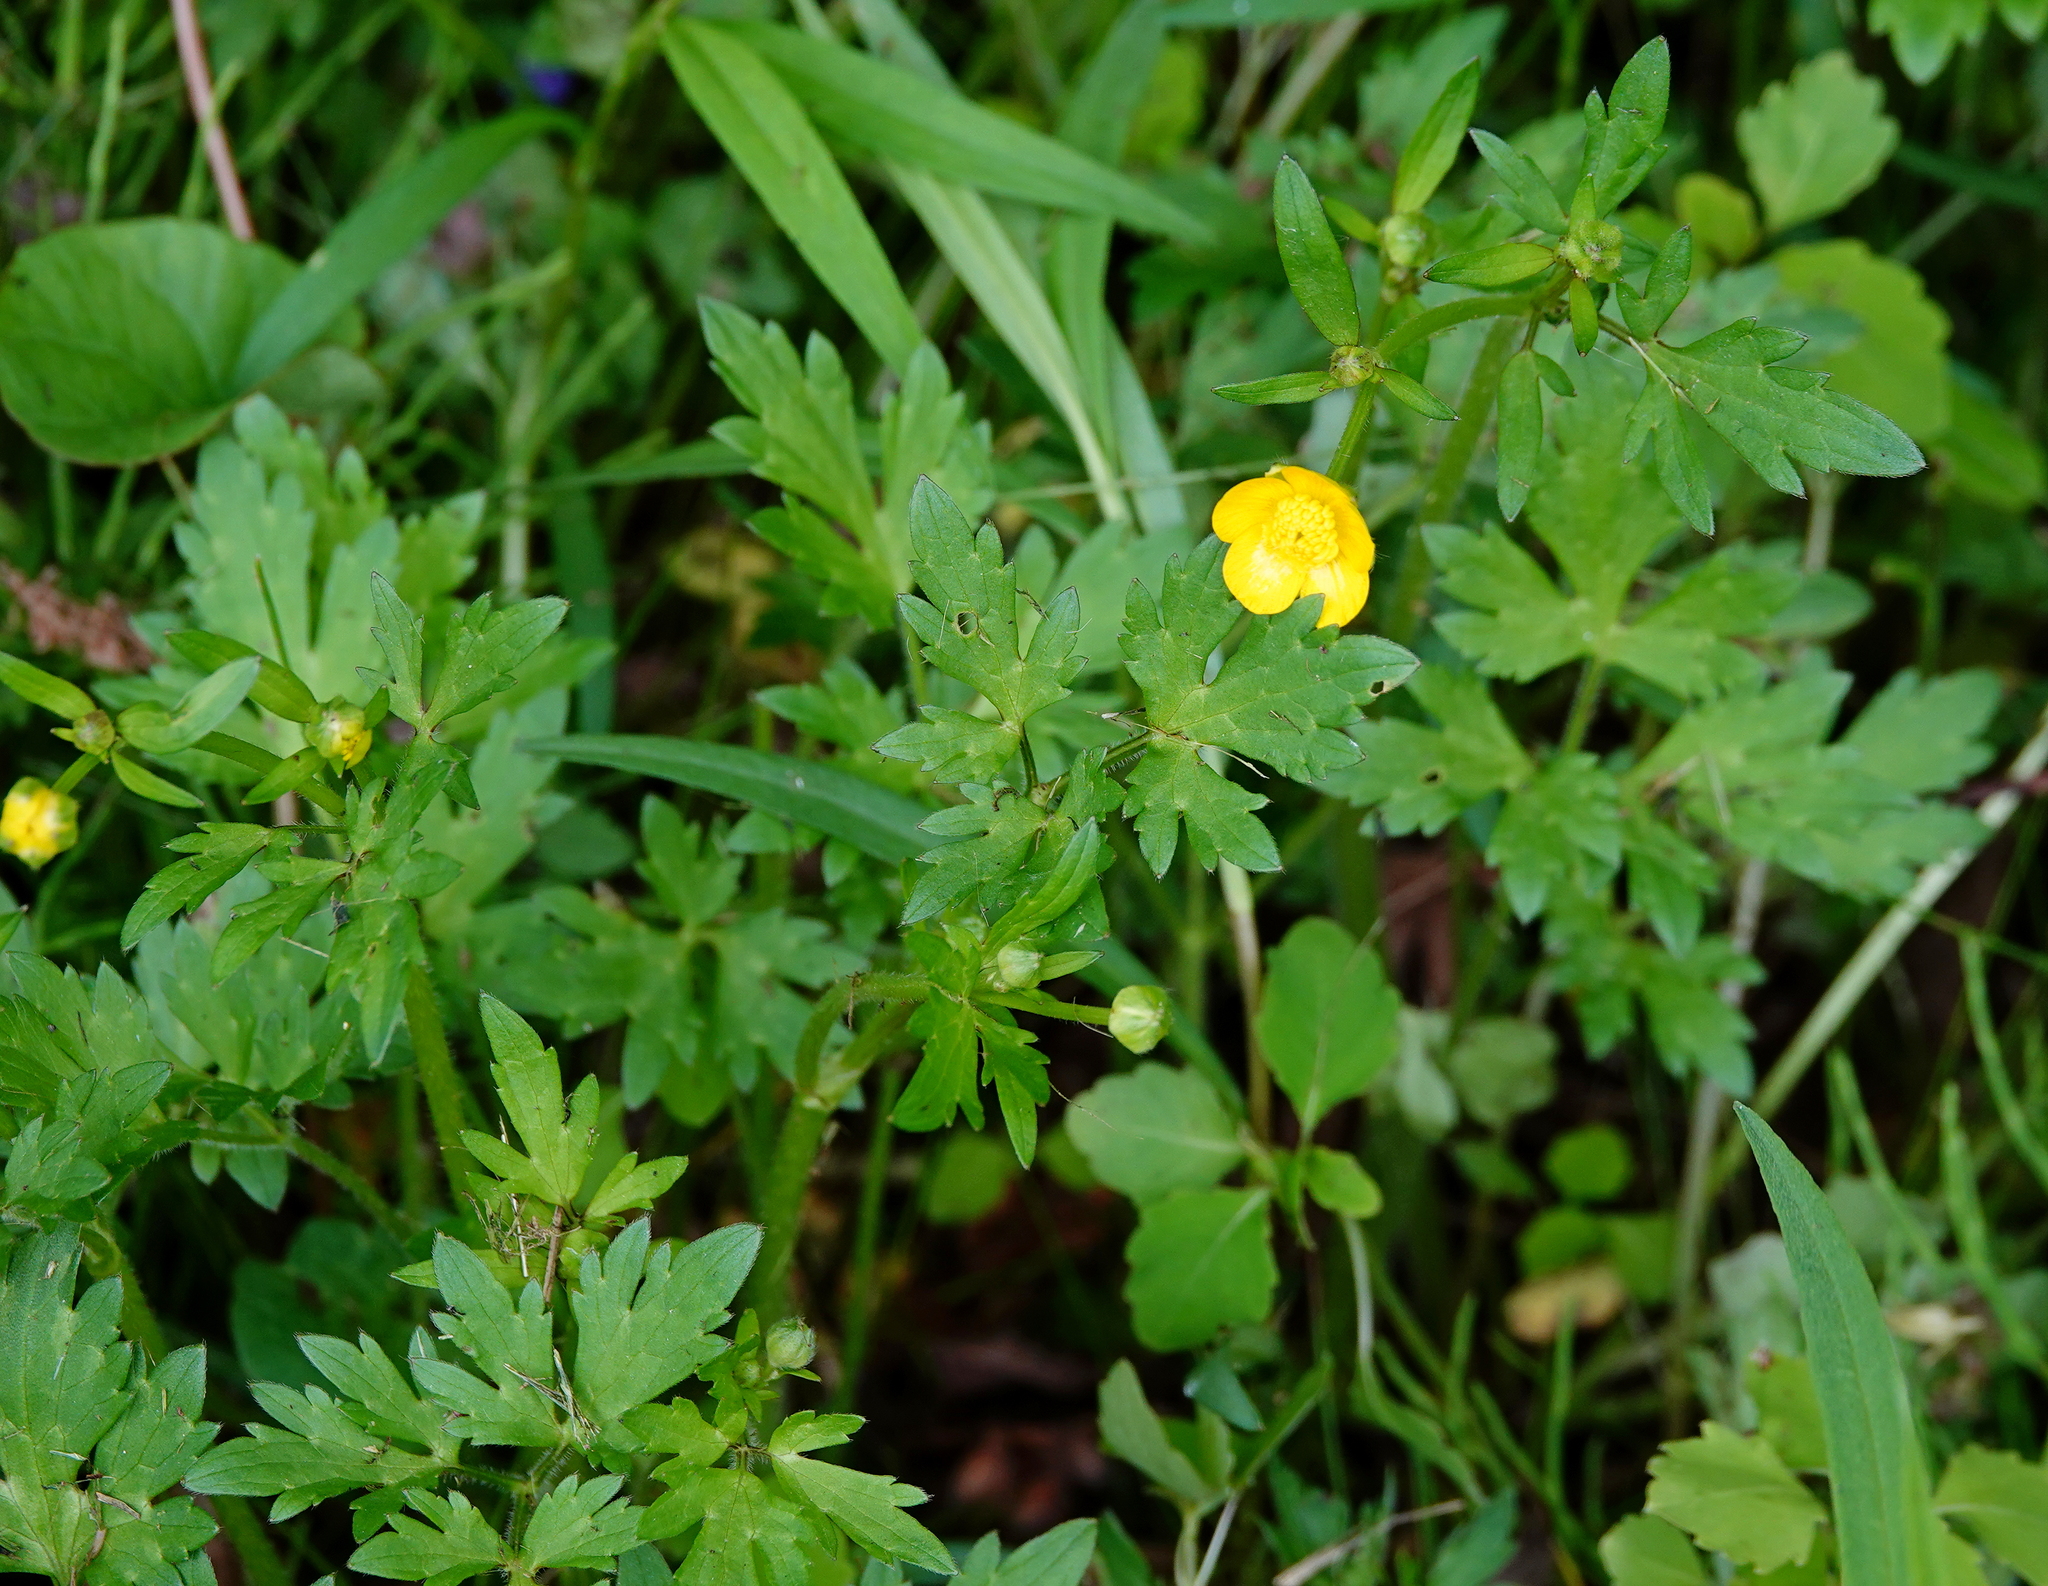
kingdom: Plantae
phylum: Tracheophyta
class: Magnoliopsida
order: Ranunculales
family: Ranunculaceae
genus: Ranunculus
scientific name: Ranunculus repens
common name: Creeping buttercup
